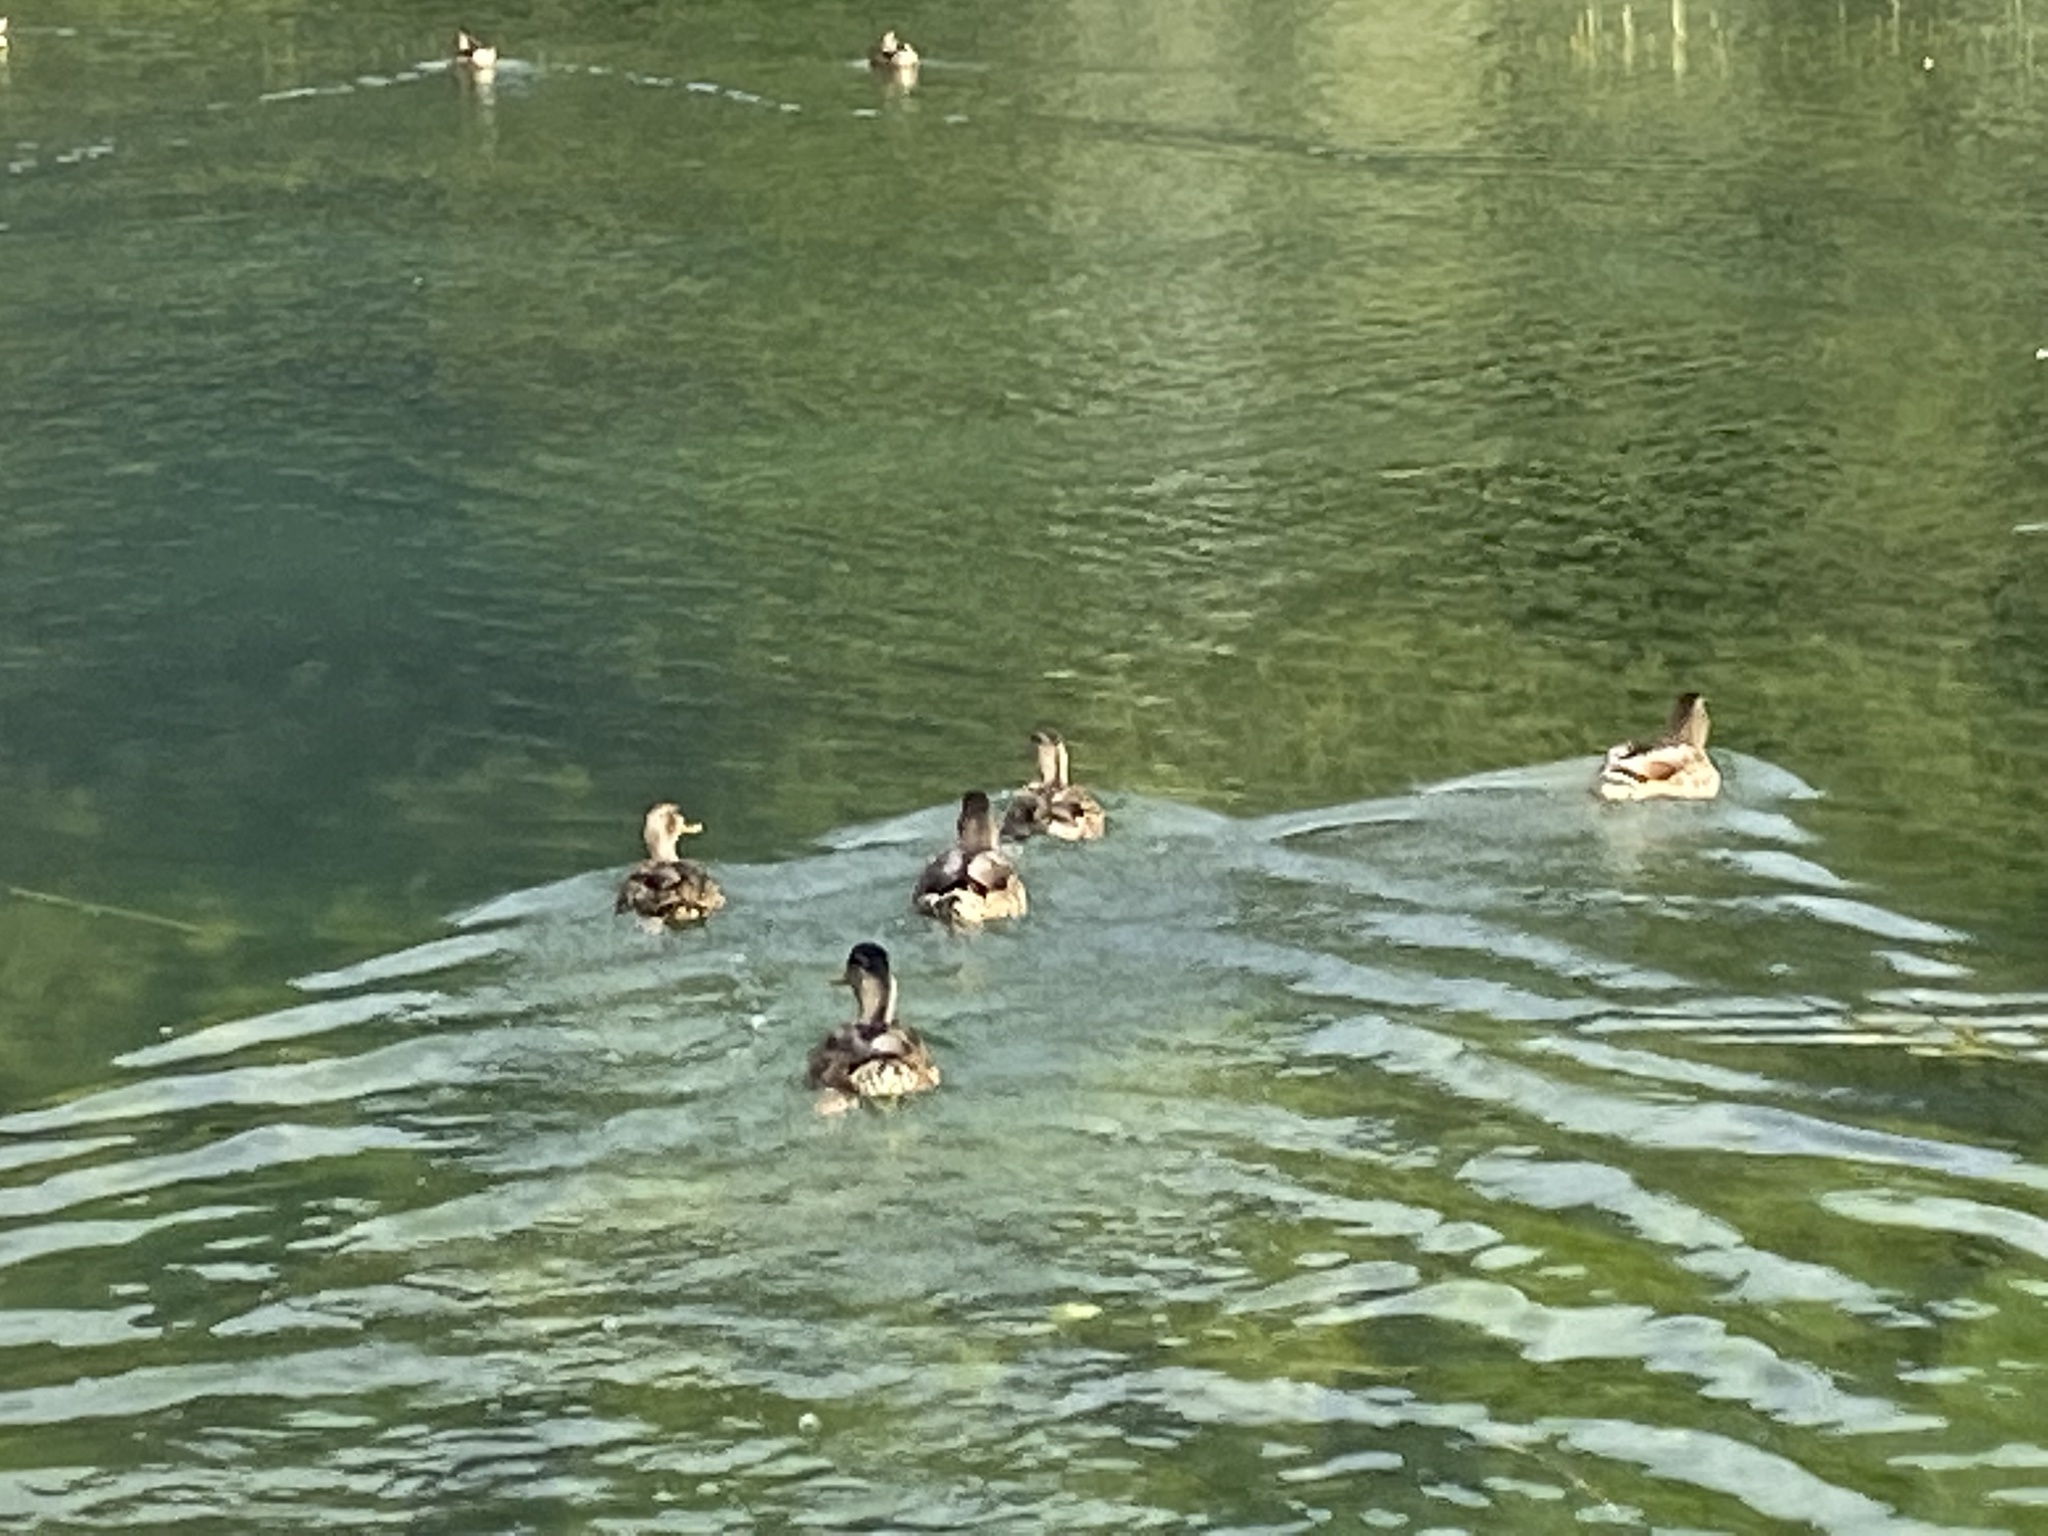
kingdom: Animalia
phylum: Chordata
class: Aves
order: Anseriformes
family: Anatidae
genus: Anas
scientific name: Anas platyrhynchos
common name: Mallard
